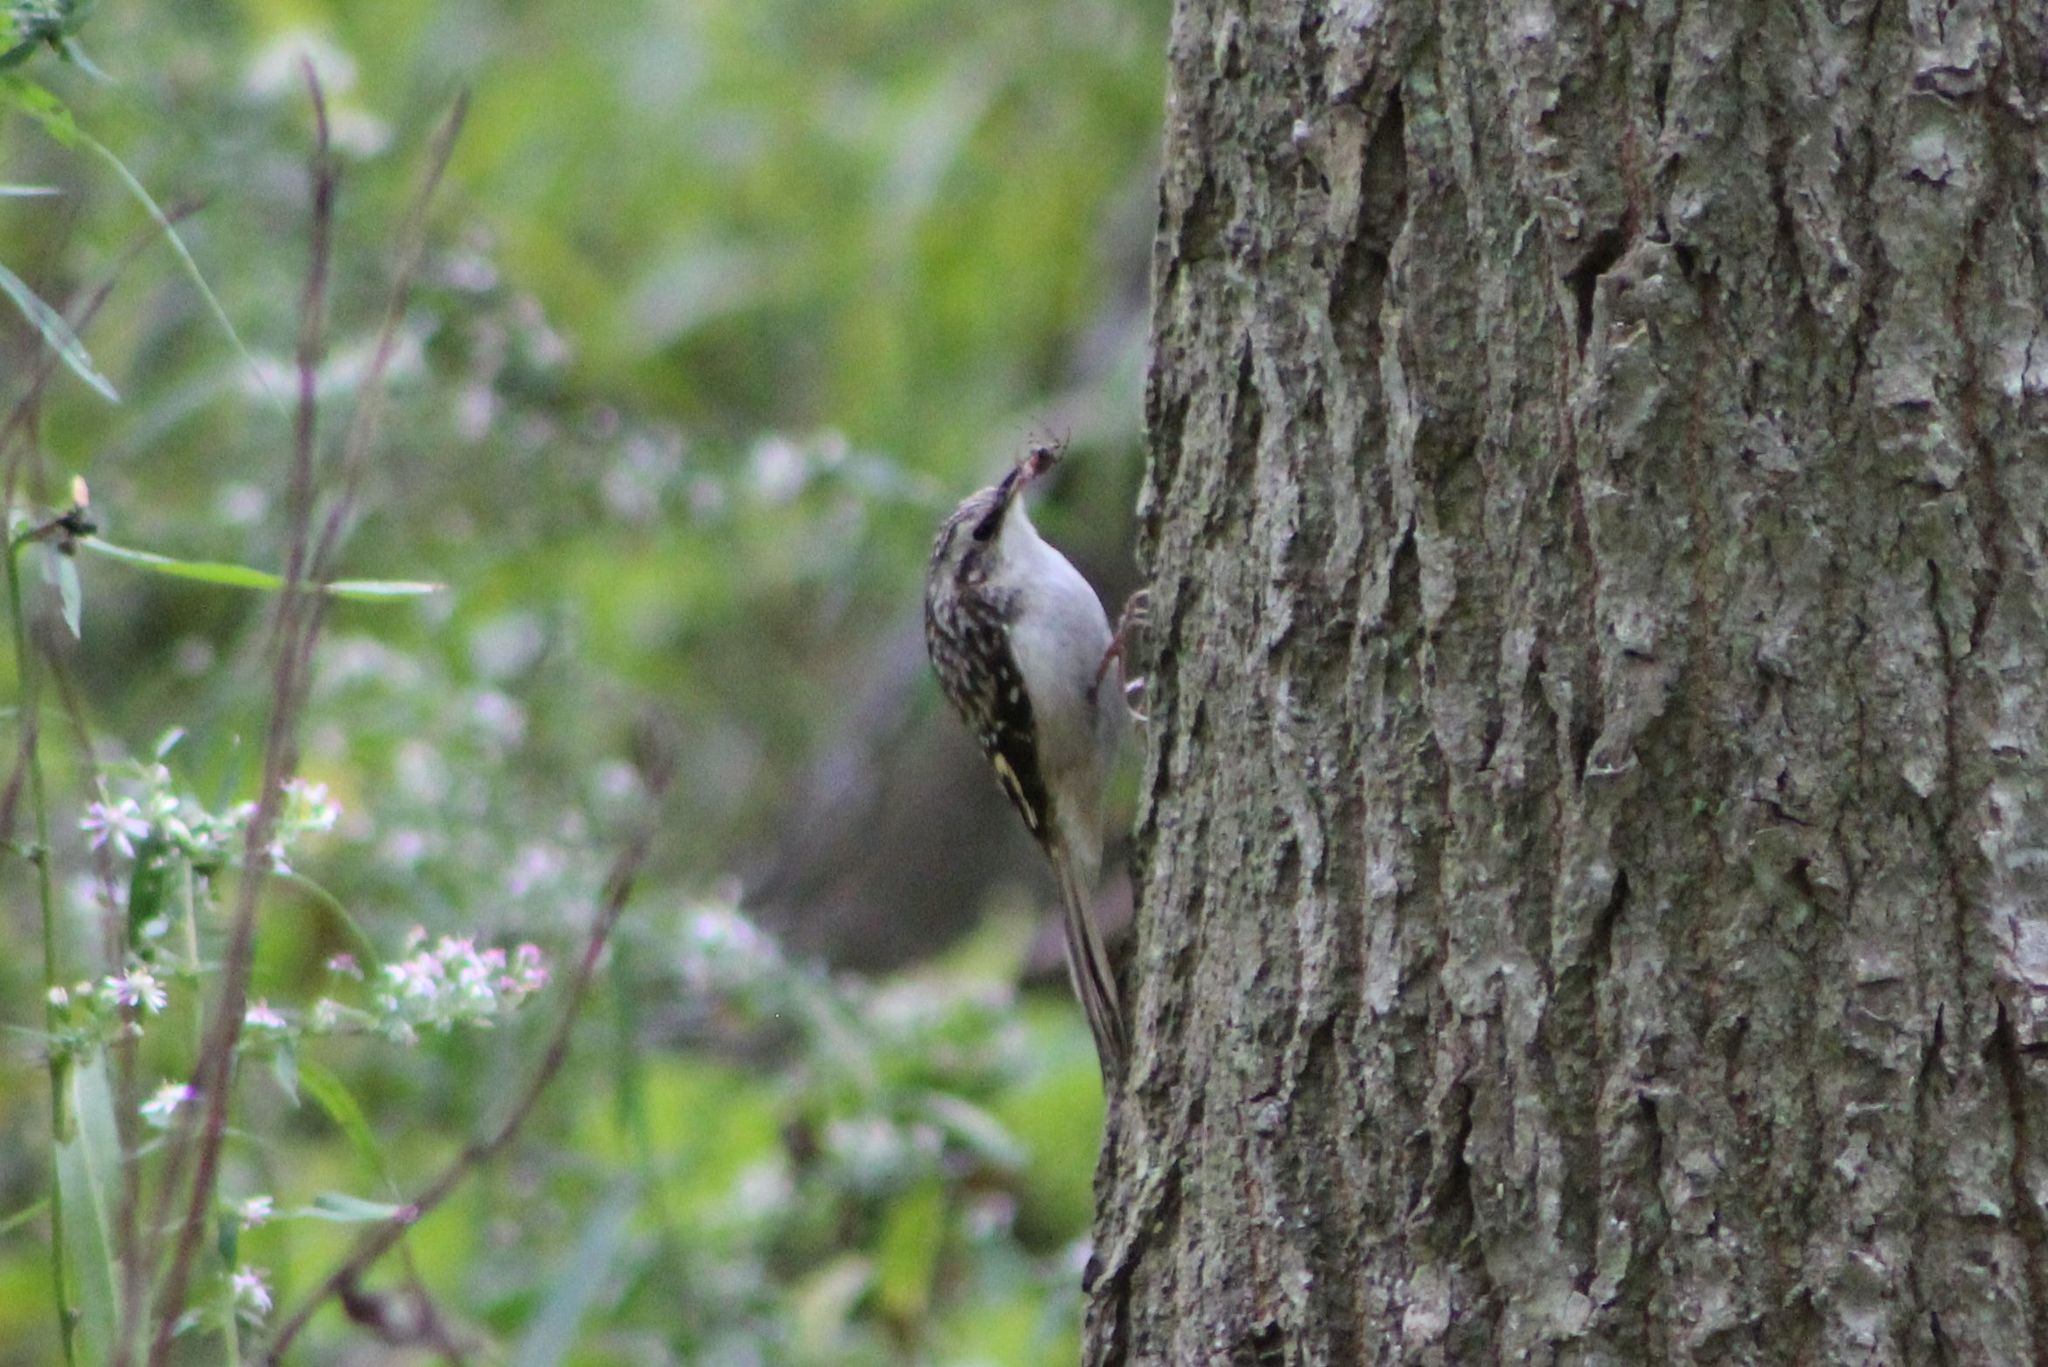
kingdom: Animalia
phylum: Chordata
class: Aves
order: Passeriformes
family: Certhiidae
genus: Certhia
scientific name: Certhia americana
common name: Brown creeper
